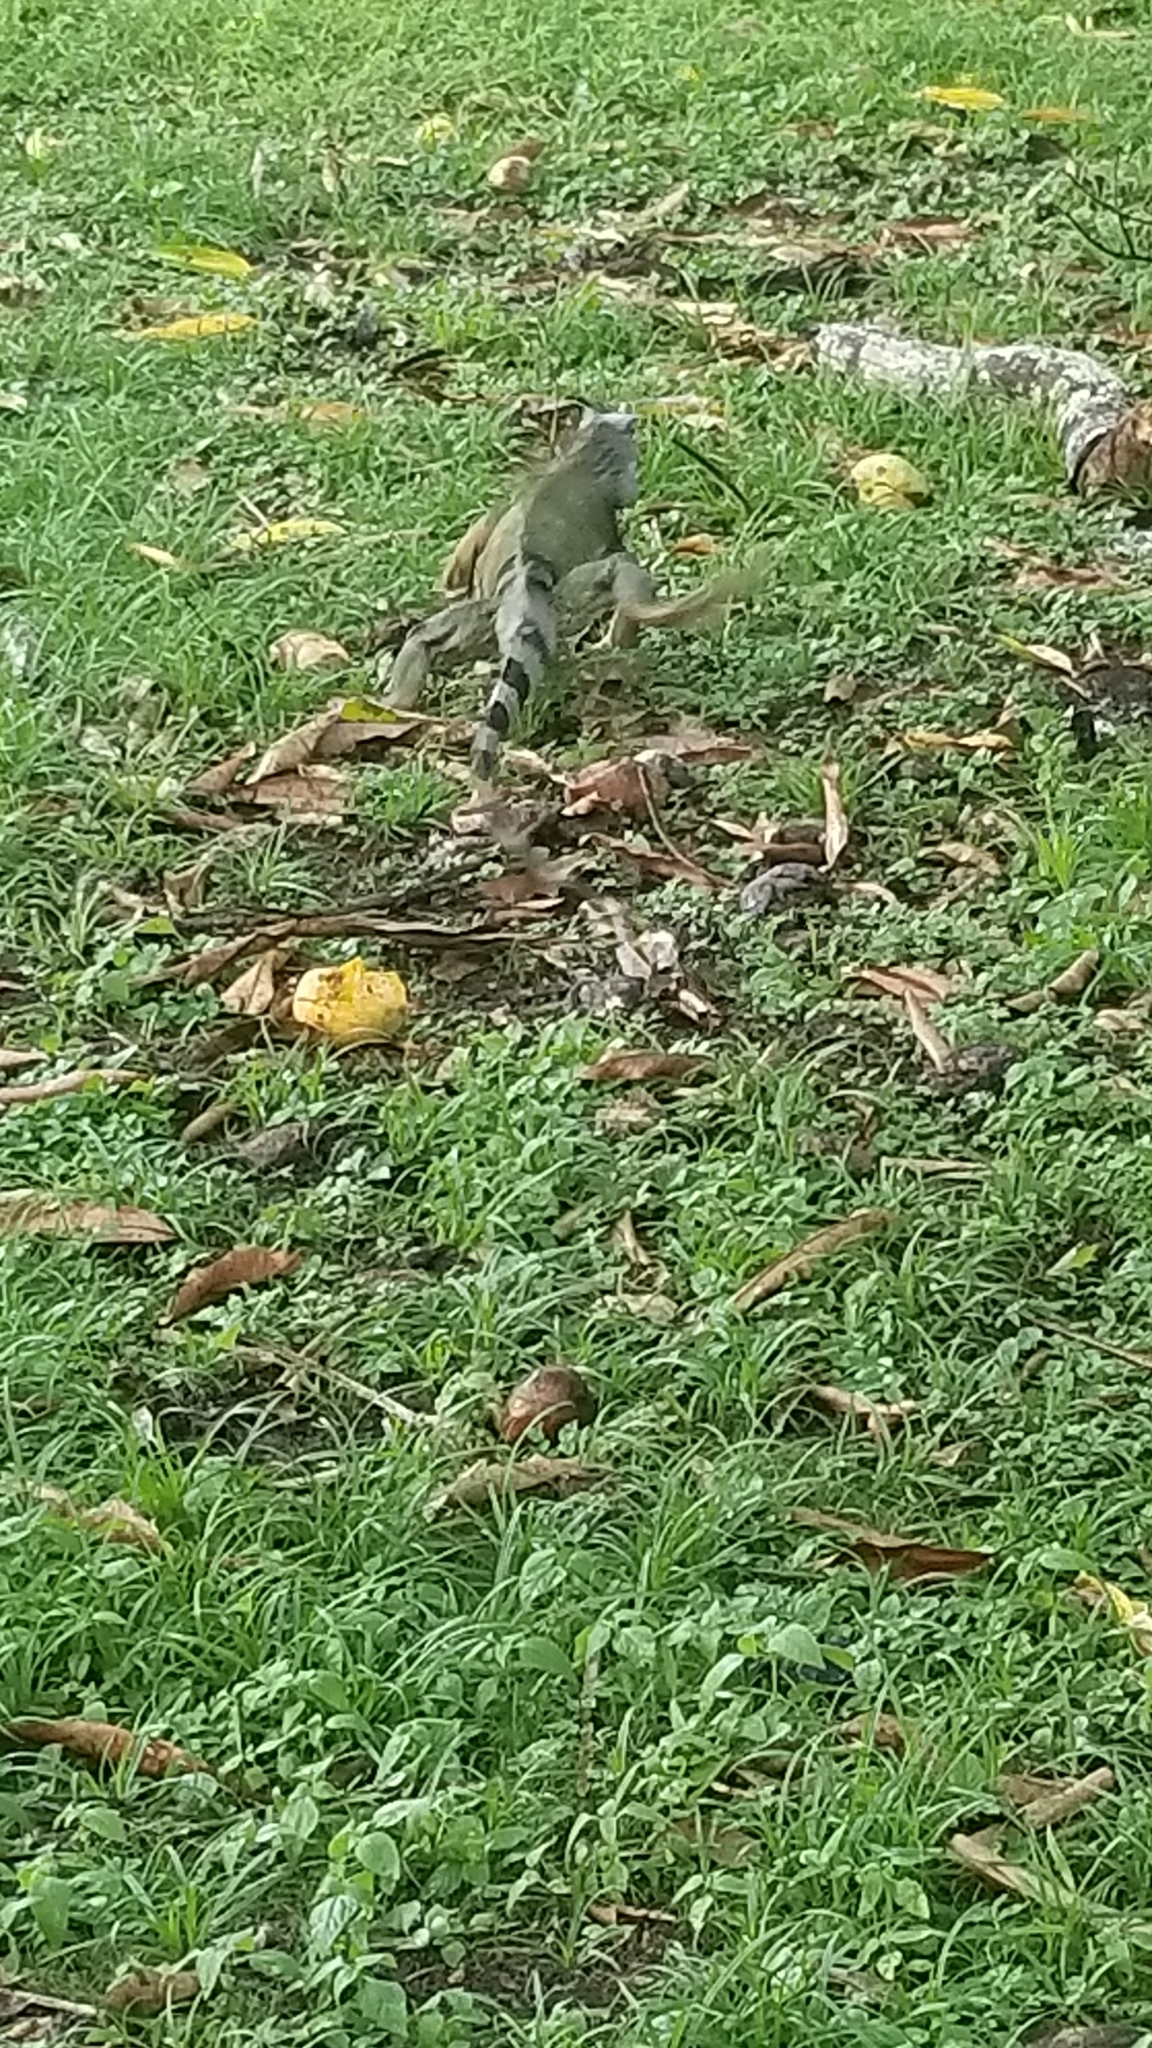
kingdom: Animalia
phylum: Chordata
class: Squamata
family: Iguanidae
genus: Iguana
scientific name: Iguana iguana
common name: Green iguana
